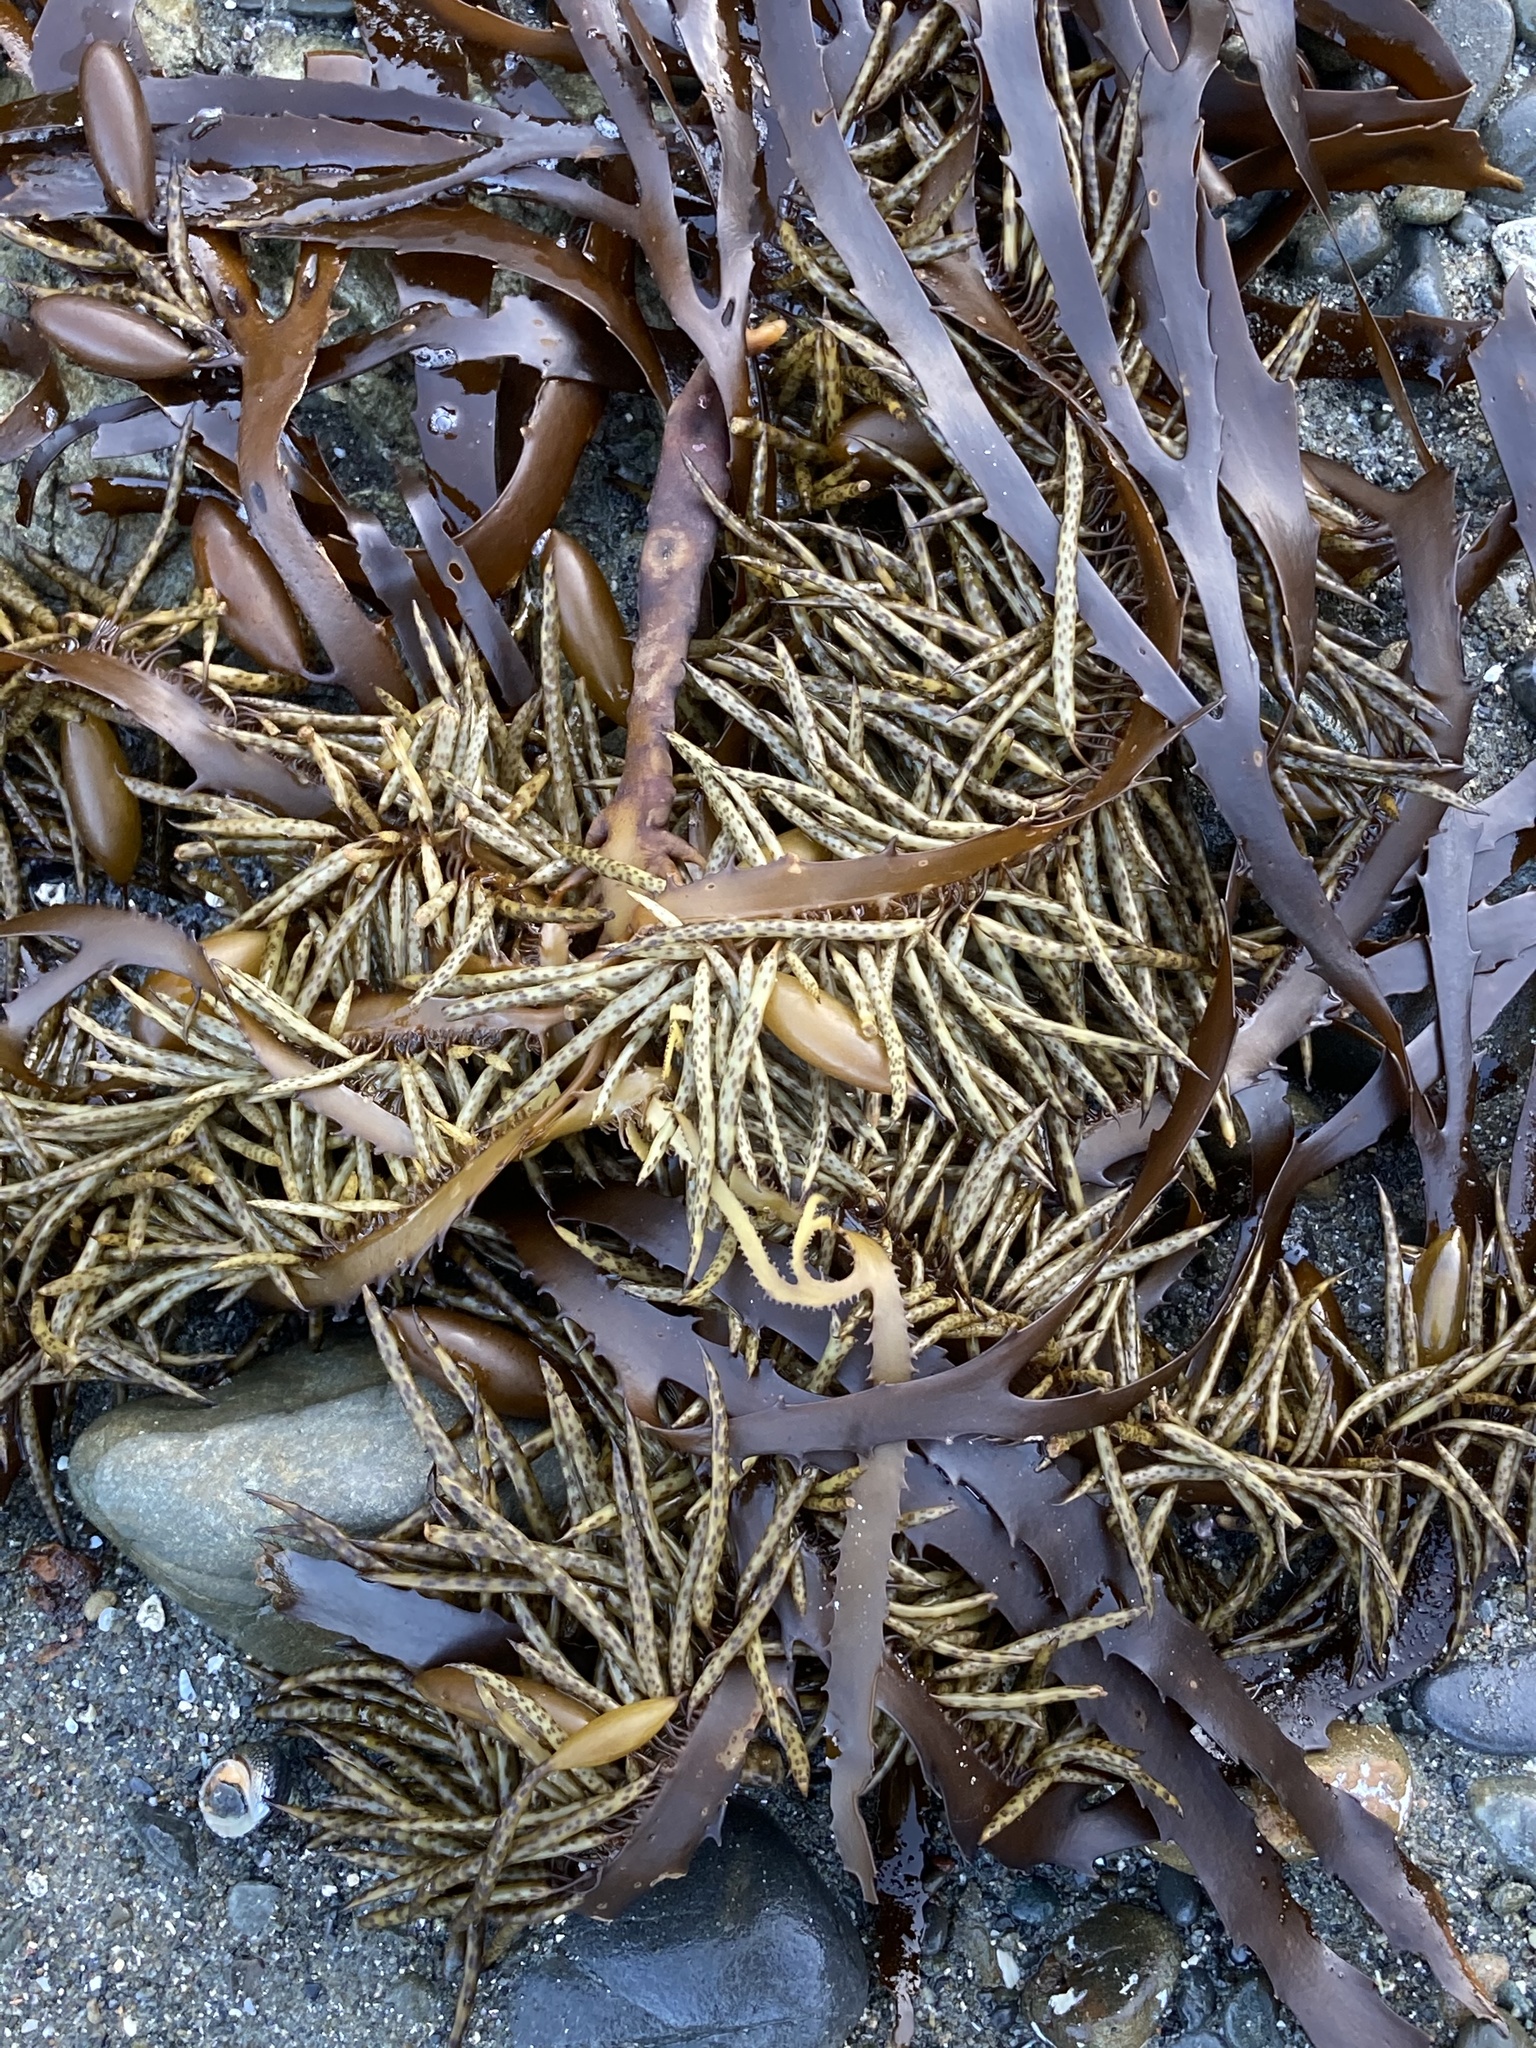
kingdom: Chromista
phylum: Ochrophyta
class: Phaeophyceae
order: Fucales
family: Seirococcaceae
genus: Marginariella
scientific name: Marginariella boryana
